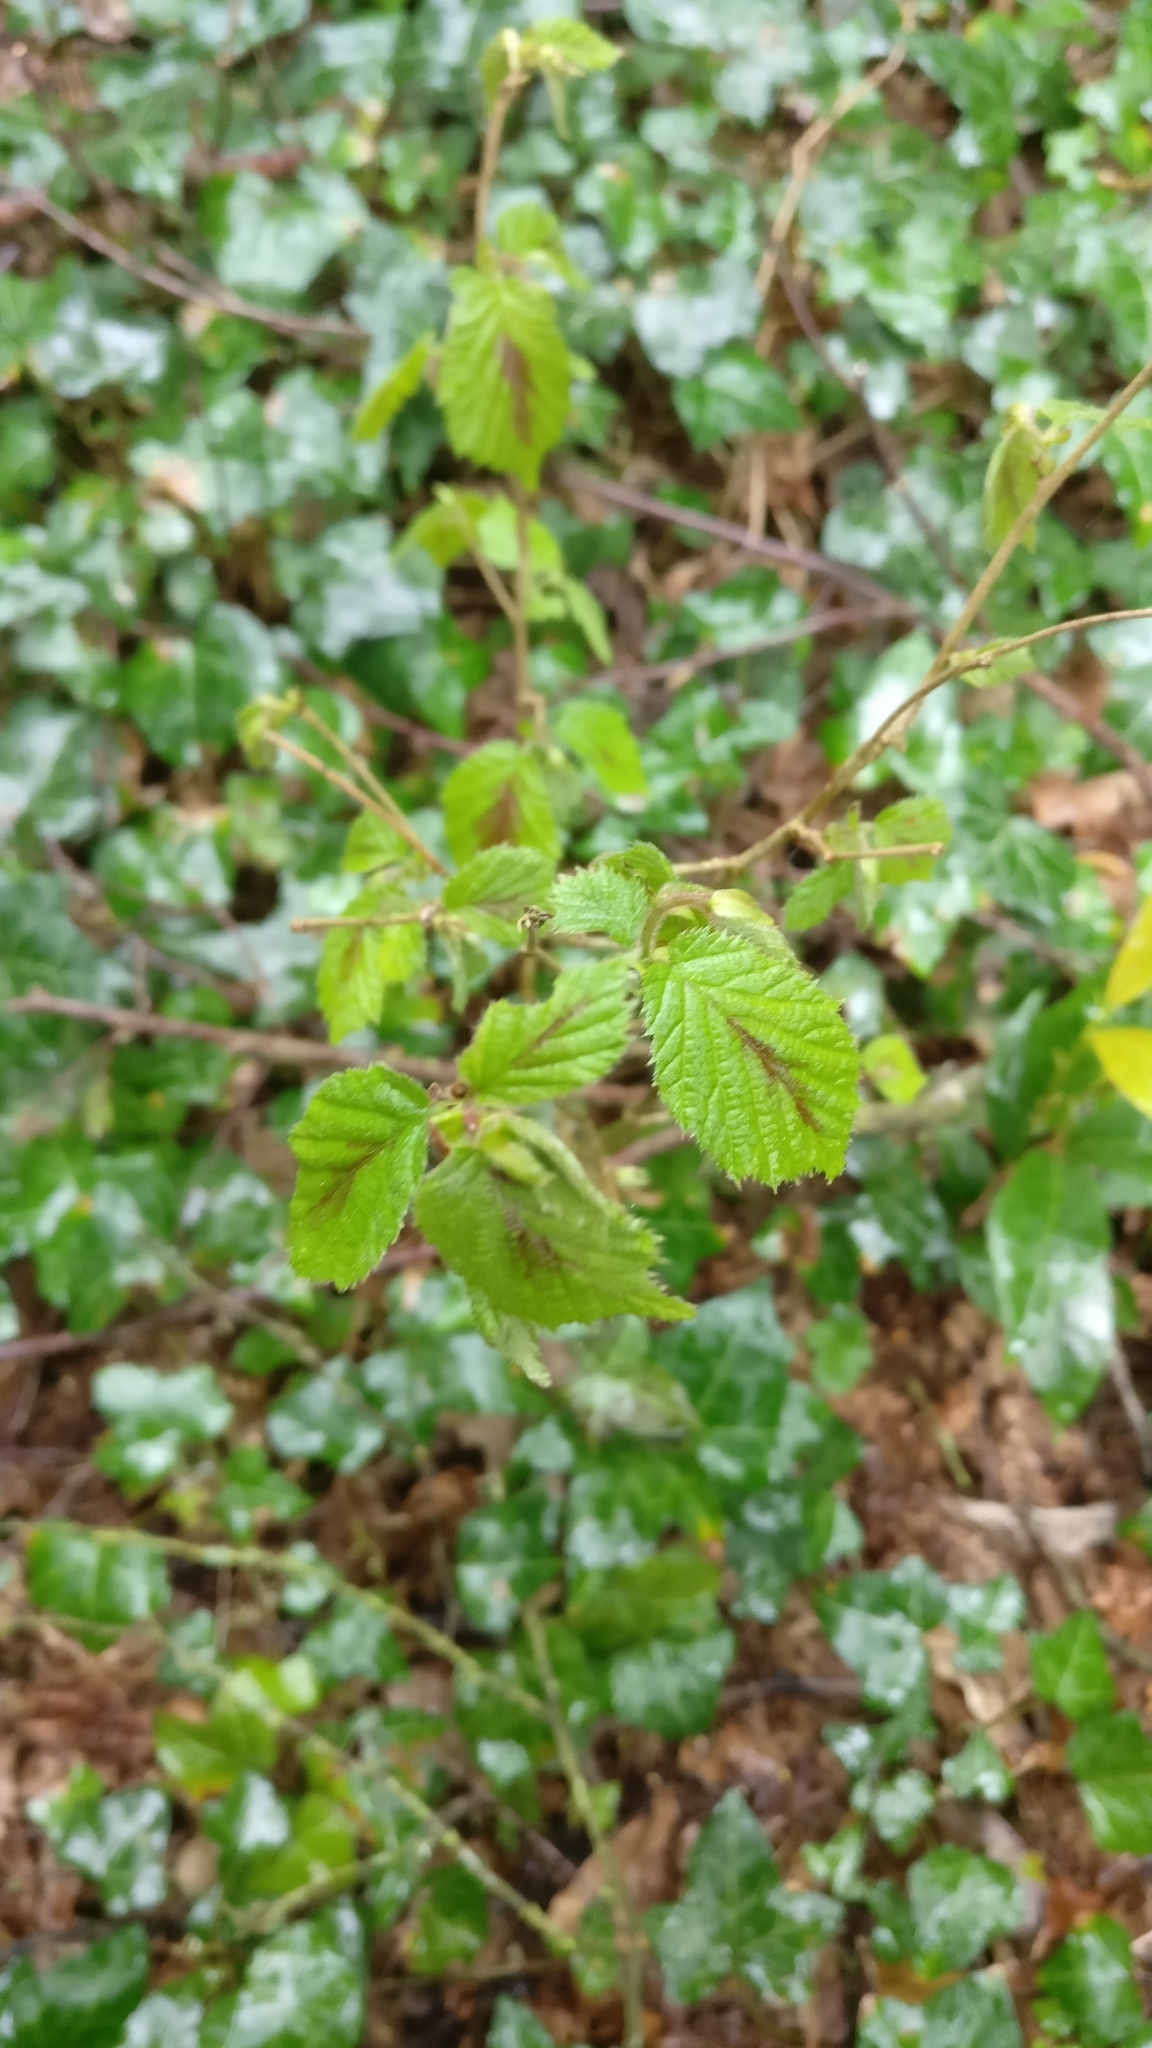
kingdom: Plantae
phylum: Tracheophyta
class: Magnoliopsida
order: Fagales
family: Betulaceae
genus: Corylus
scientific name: Corylus avellana
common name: European hazel
